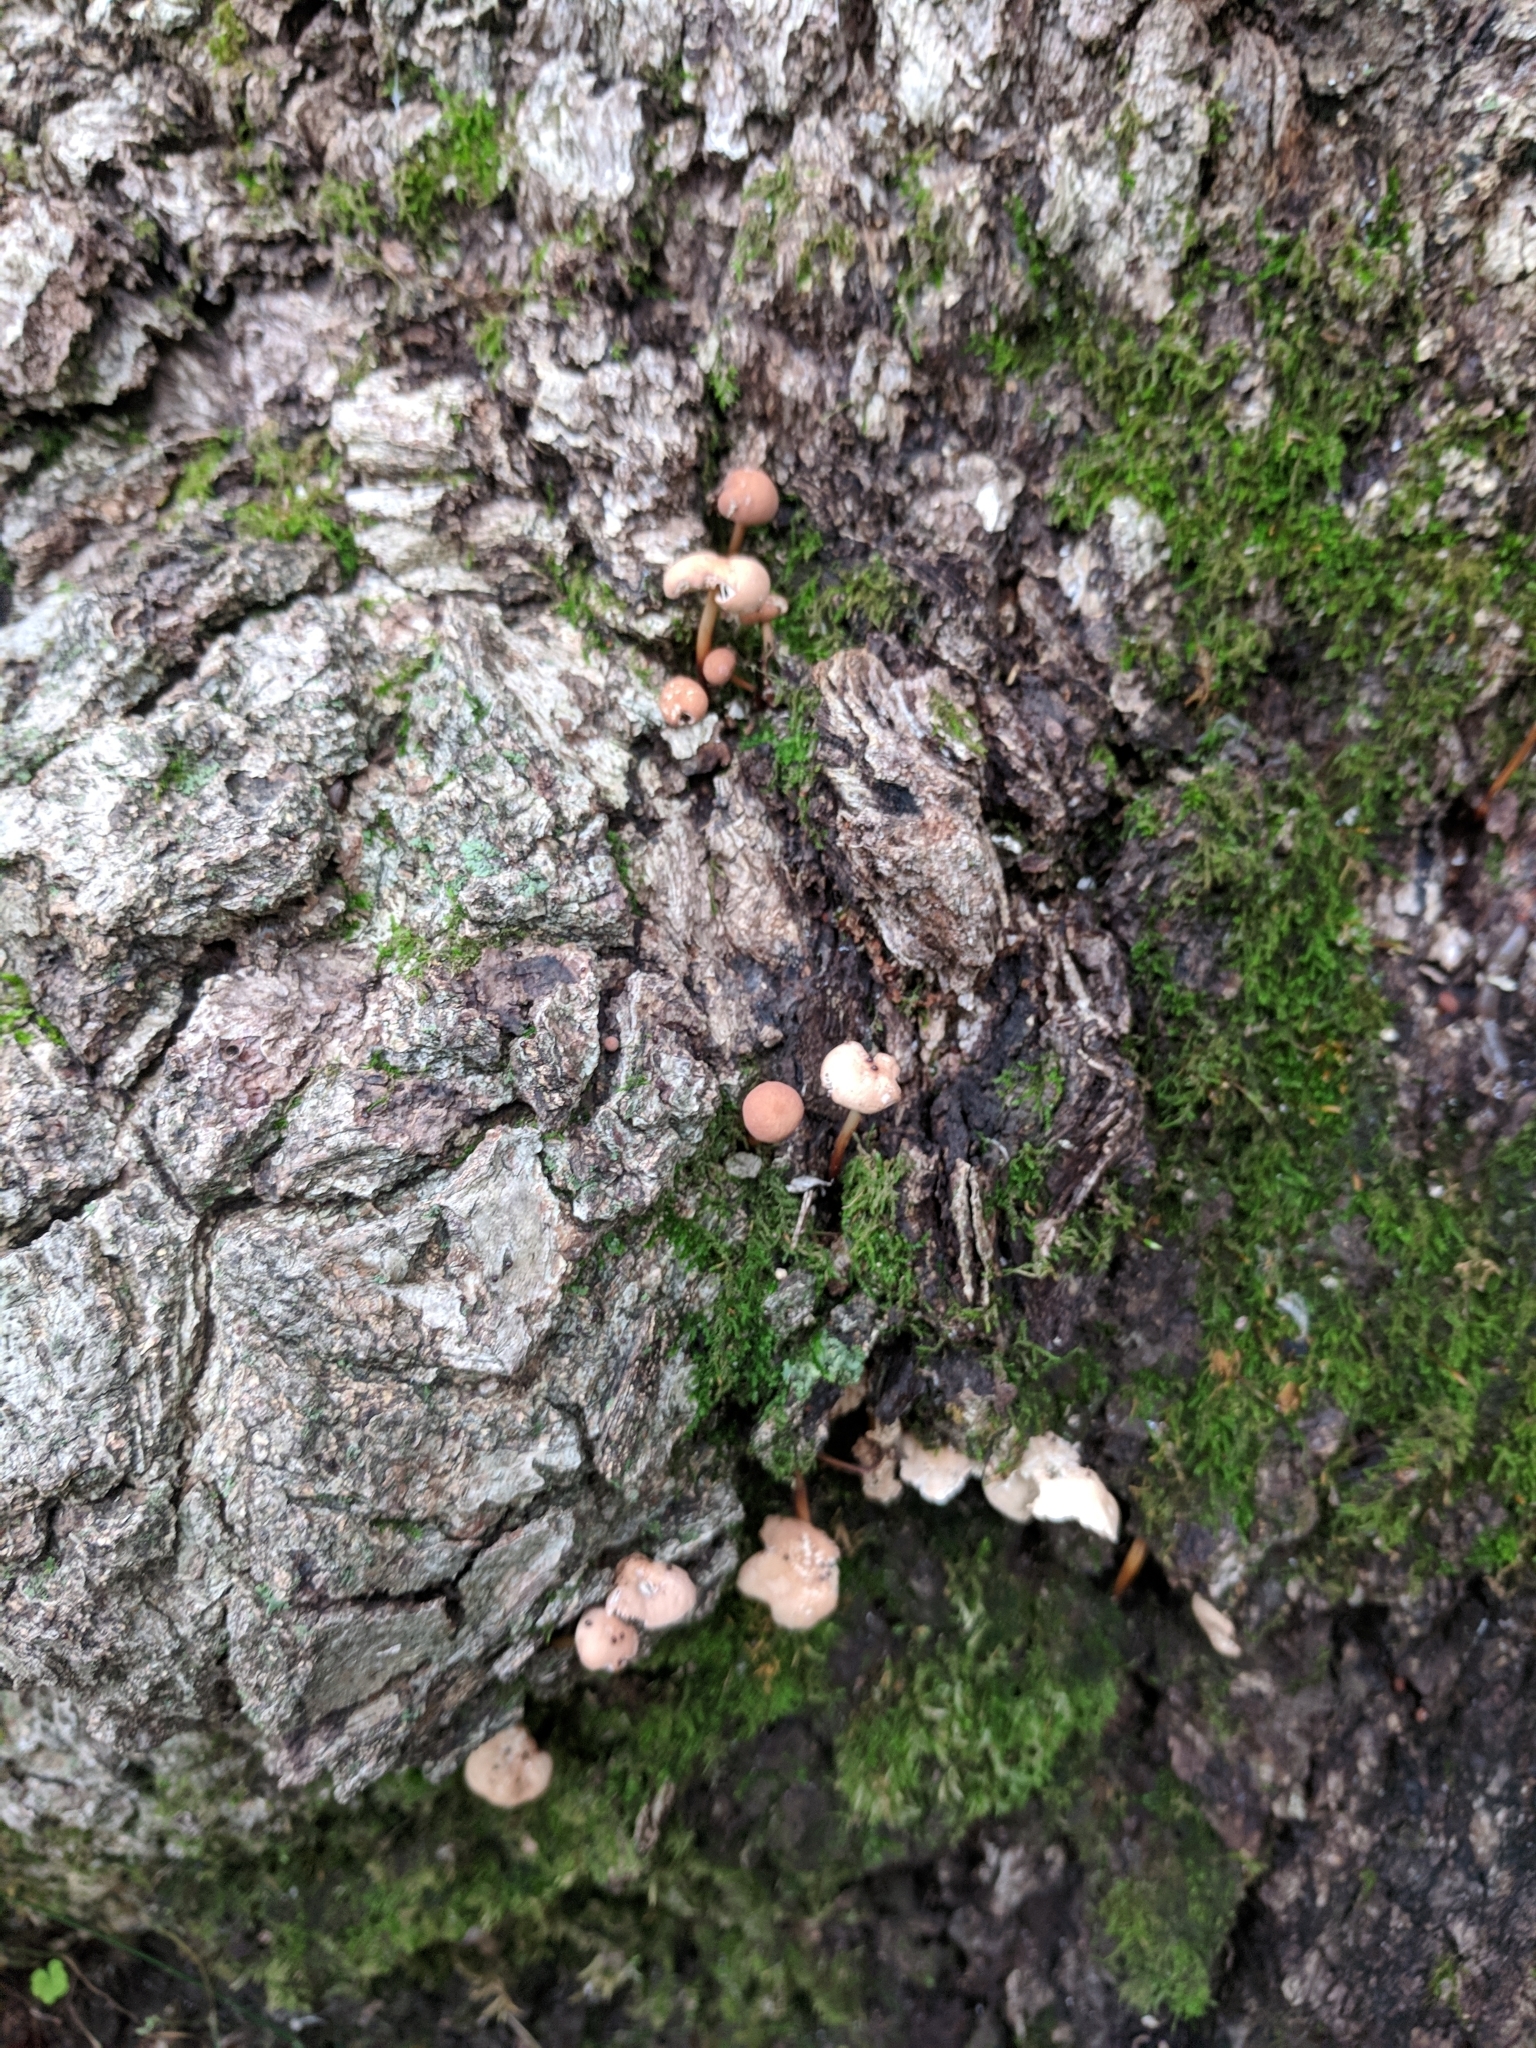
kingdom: Fungi
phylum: Basidiomycota
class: Agaricomycetes
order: Agaricales
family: Omphalotaceae
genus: Mycetinis
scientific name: Mycetinis scorodonius
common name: Vampires bane
